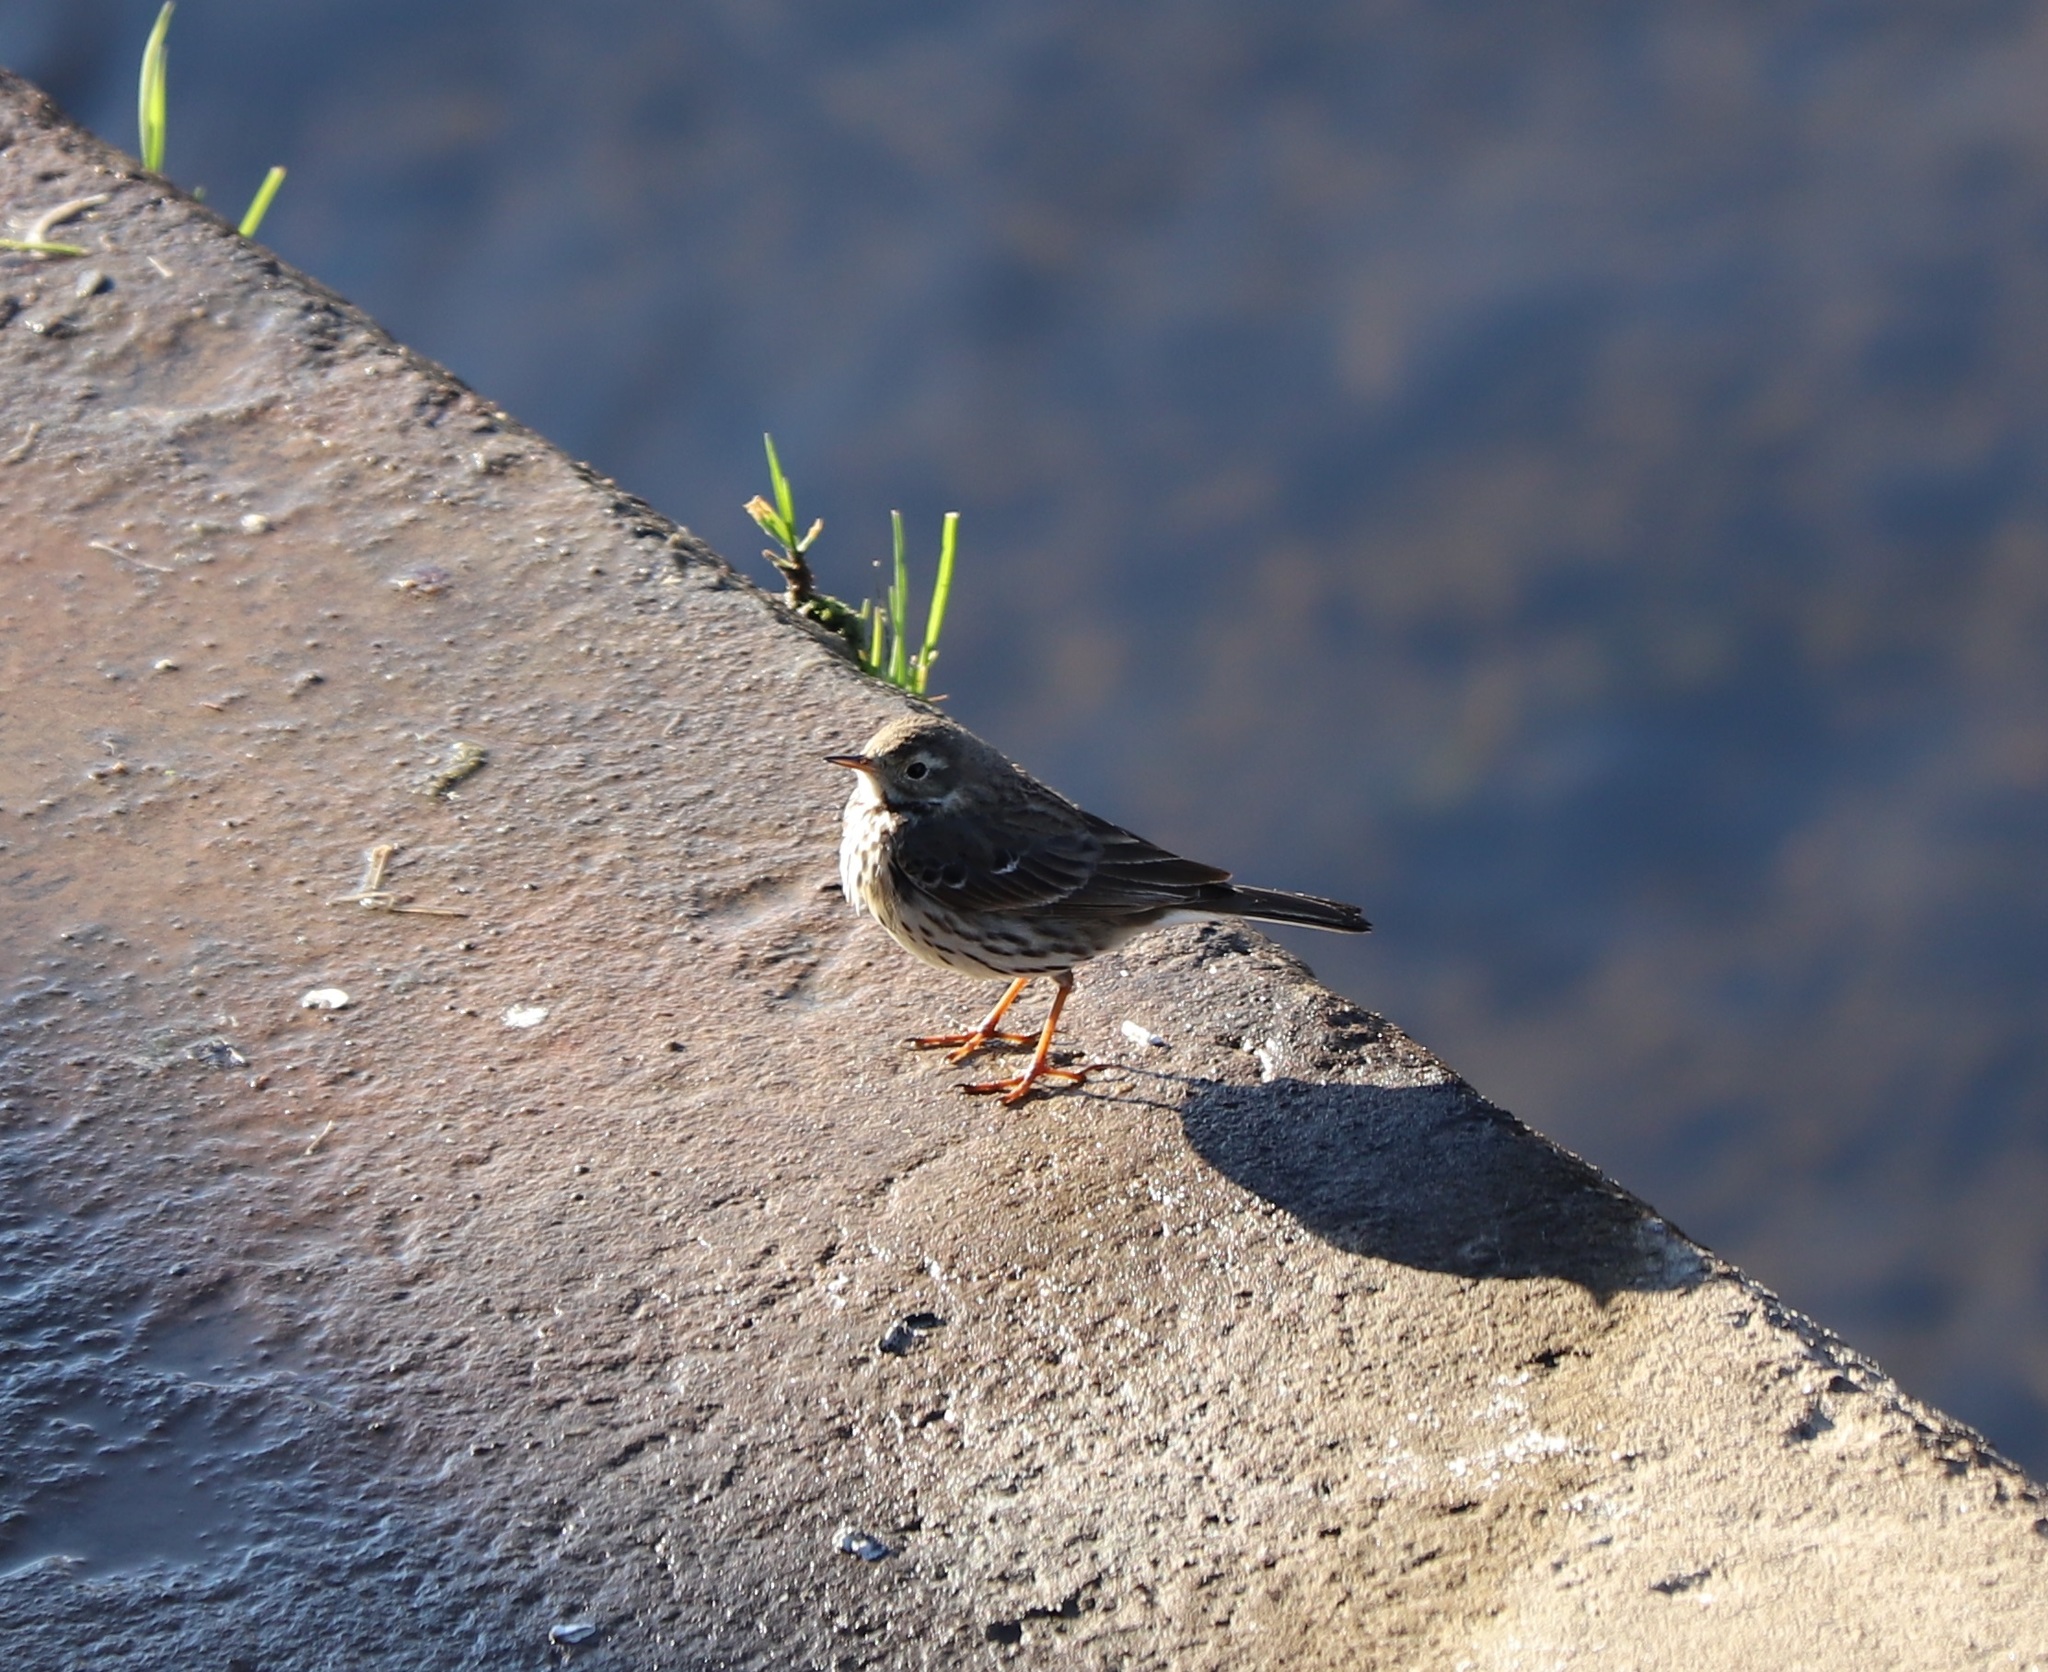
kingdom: Animalia
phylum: Chordata
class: Aves
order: Passeriformes
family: Motacillidae
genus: Anthus
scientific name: Anthus rubescens
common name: Buff-bellied pipit
